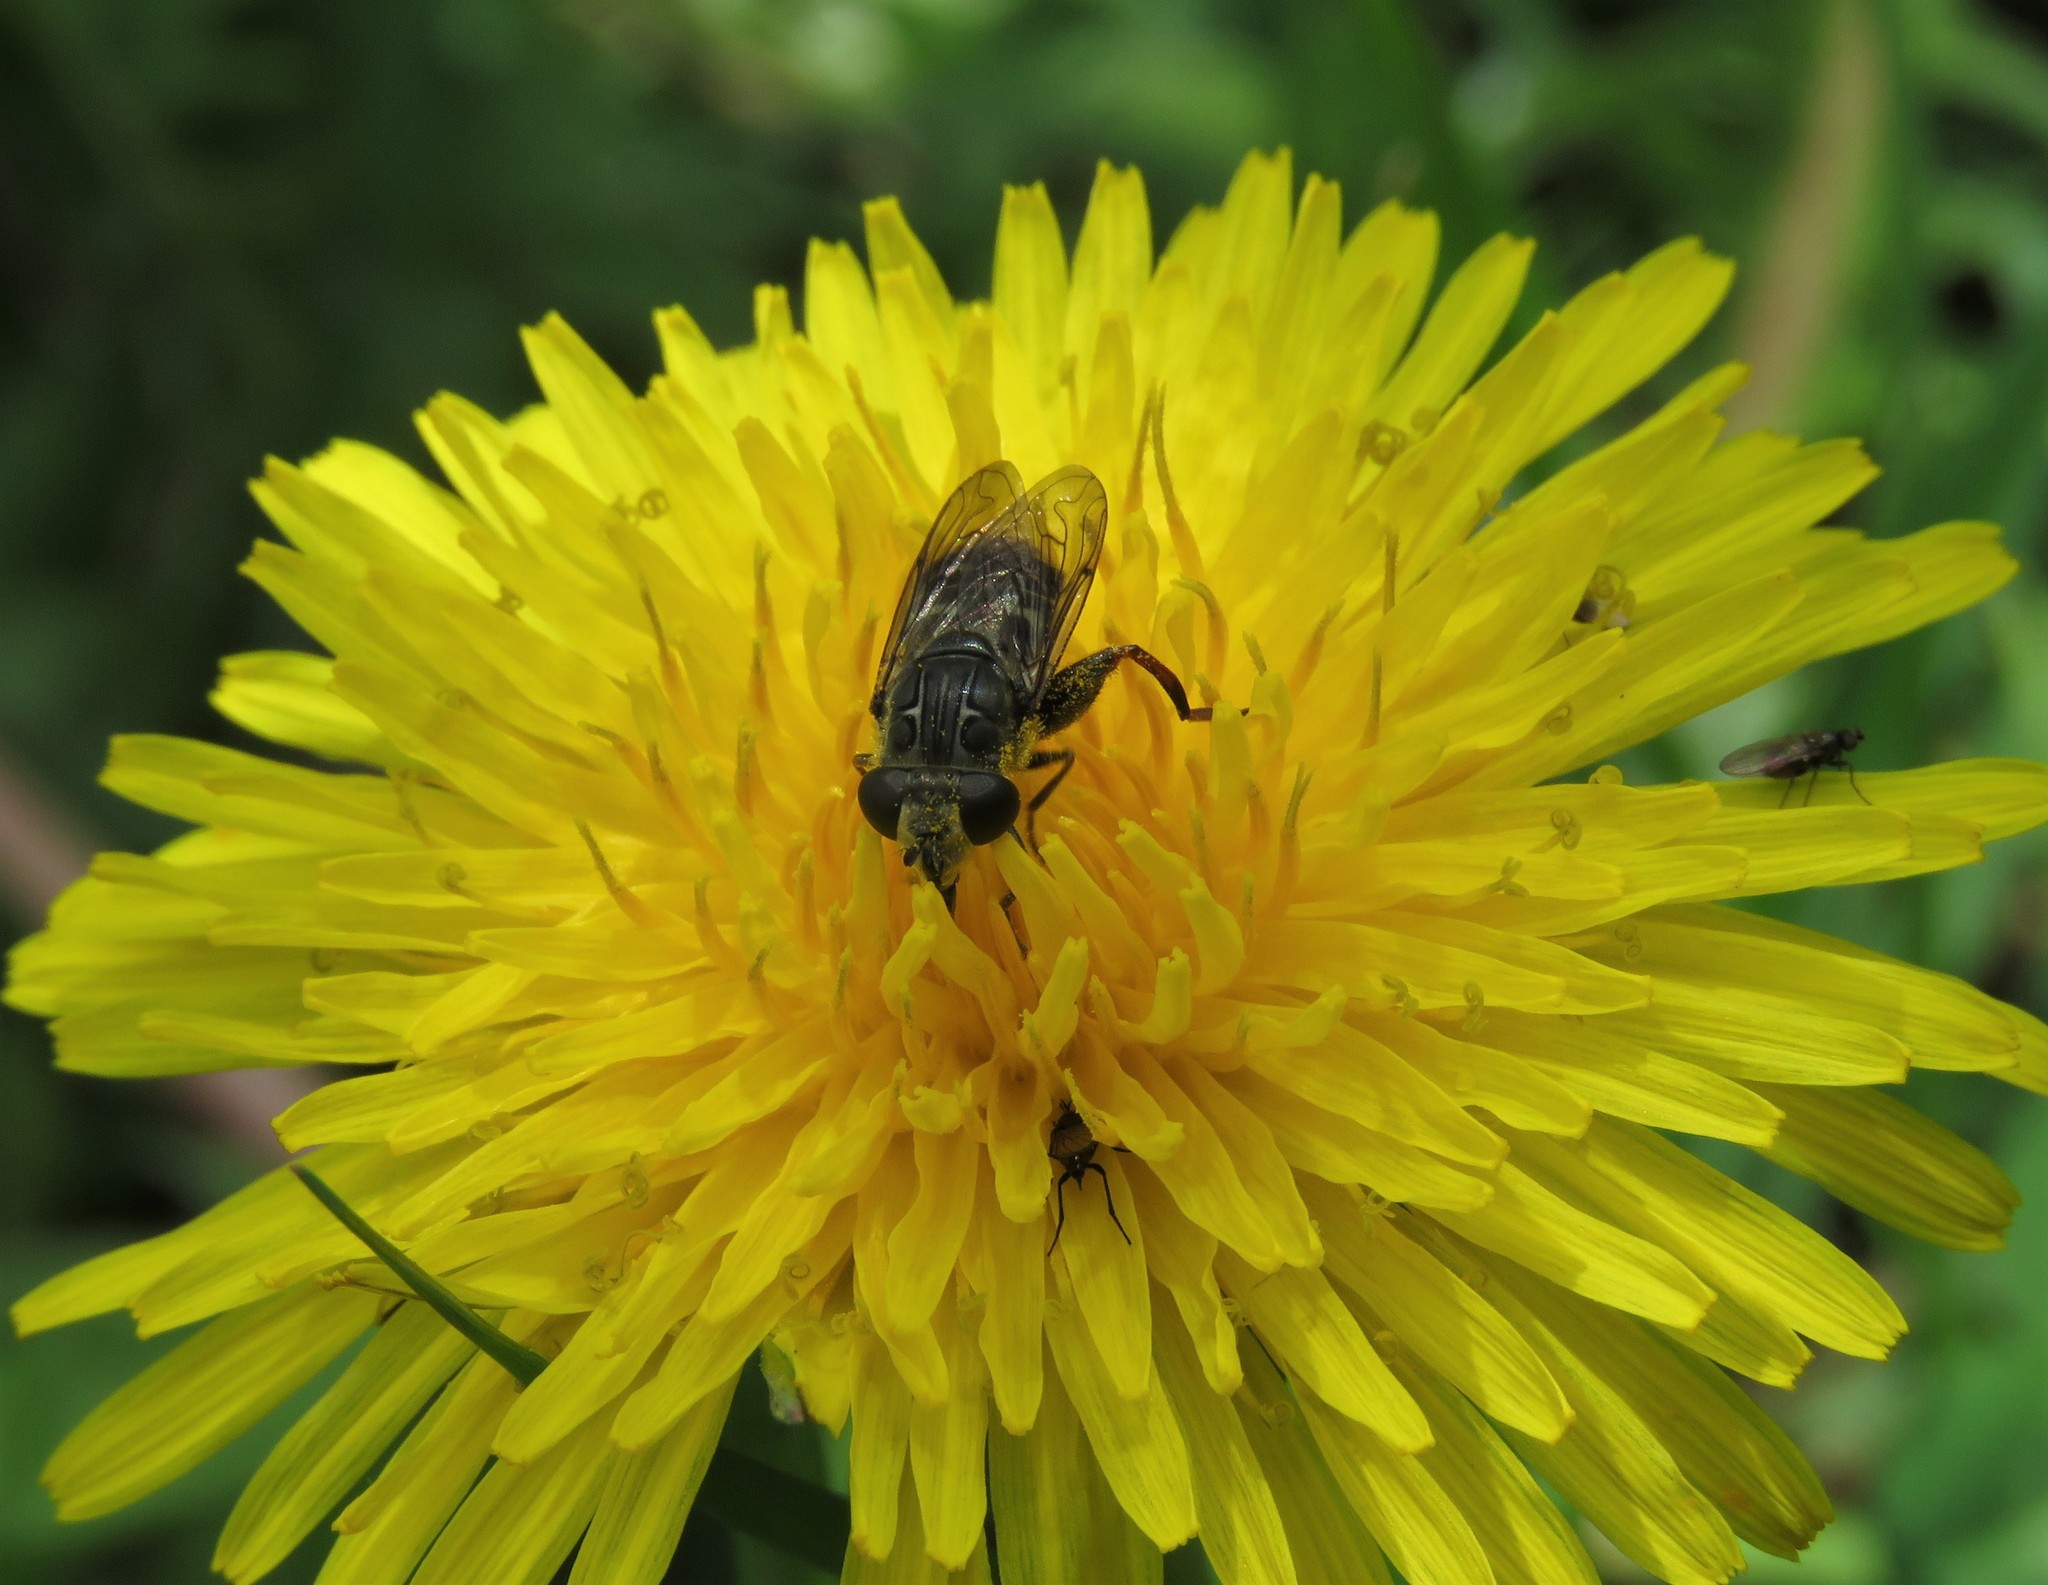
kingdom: Animalia
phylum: Arthropoda
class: Insecta
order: Diptera
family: Syrphidae
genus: Asemosyrphus
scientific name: Asemosyrphus
